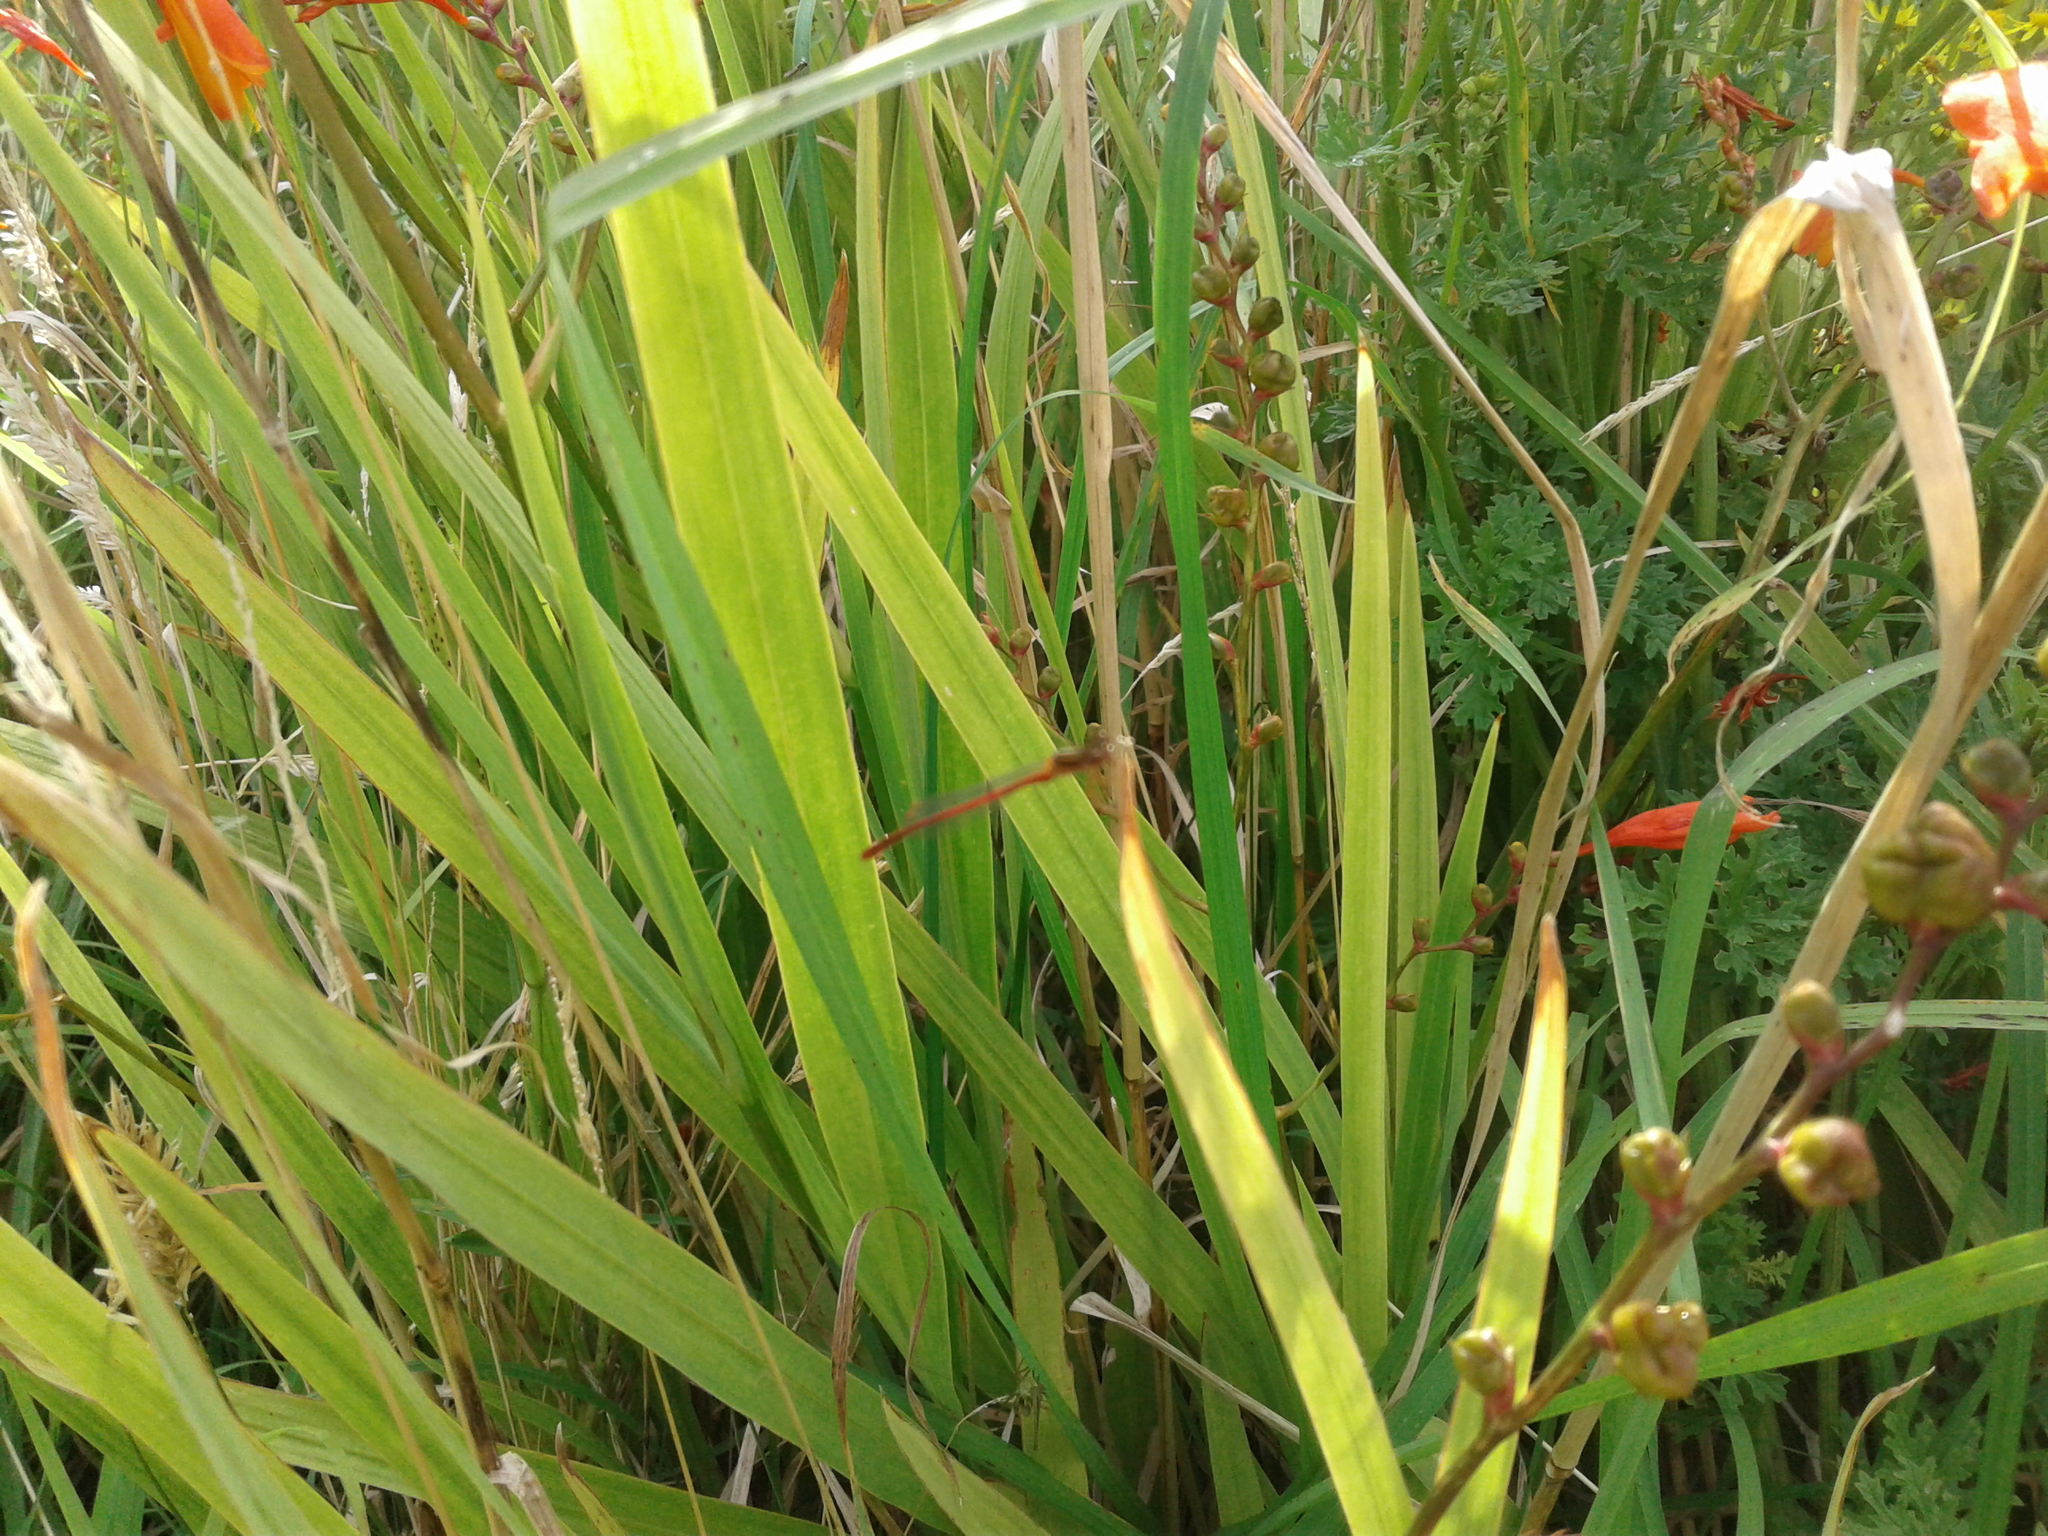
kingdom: Animalia
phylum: Arthropoda
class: Insecta
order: Odonata
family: Coenagrionidae
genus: Xanthocnemis
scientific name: Xanthocnemis zealandica
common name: Common redcoat damselfly
